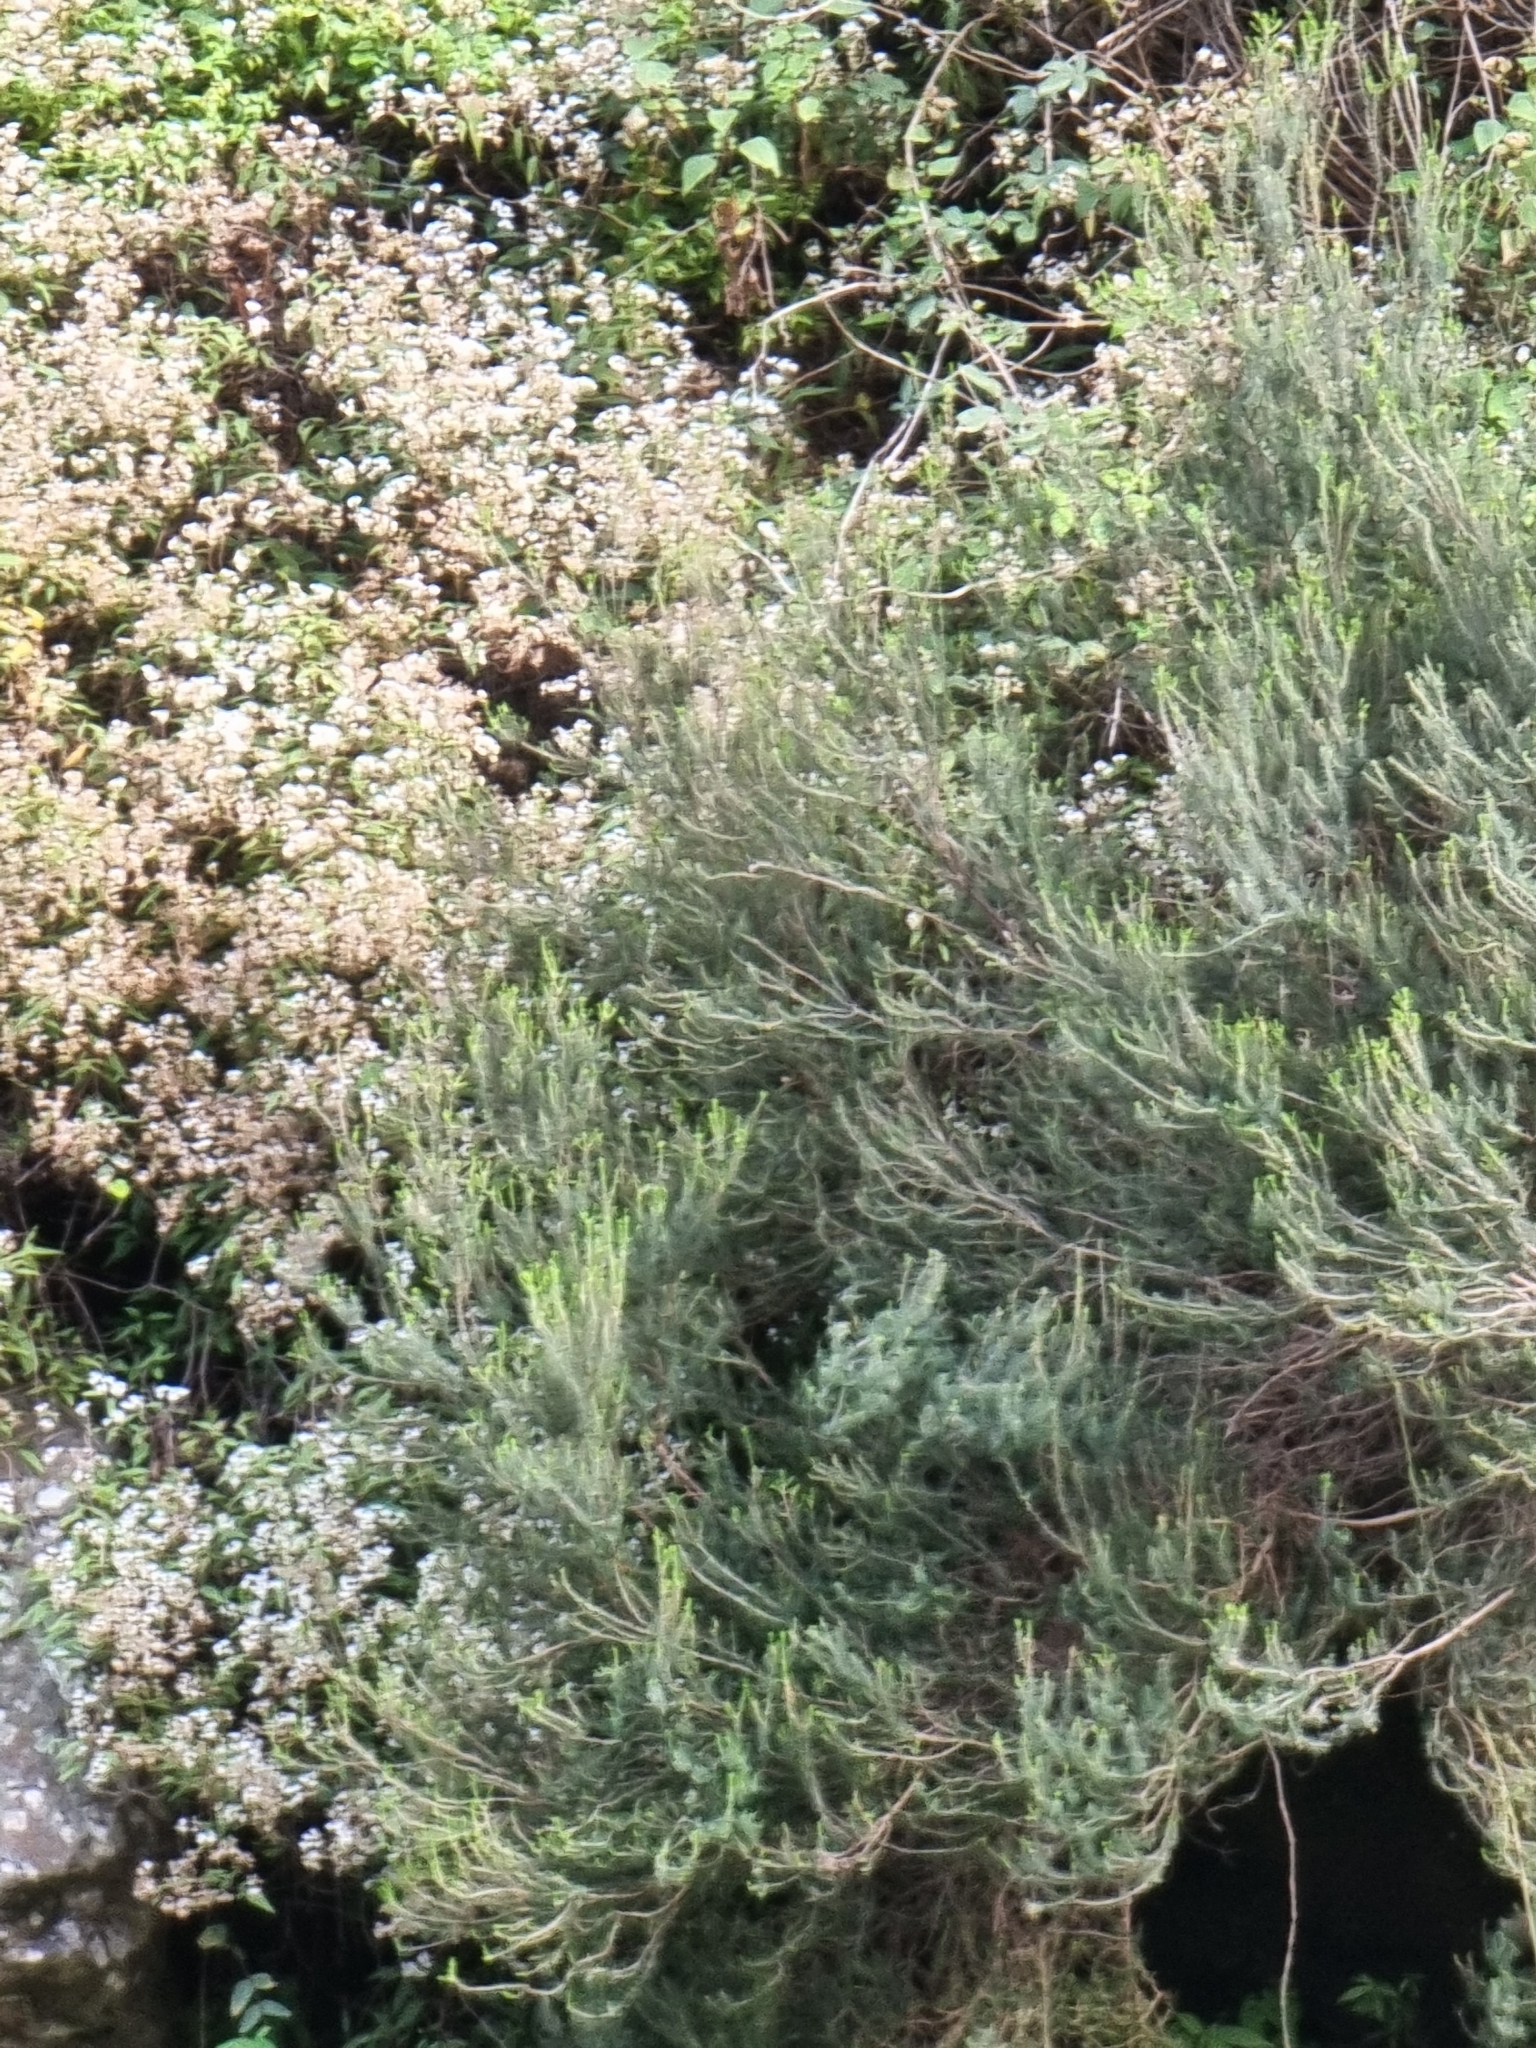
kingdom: Plantae
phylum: Tracheophyta
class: Magnoliopsida
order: Ericales
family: Ericaceae
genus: Erica
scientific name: Erica platycodon
